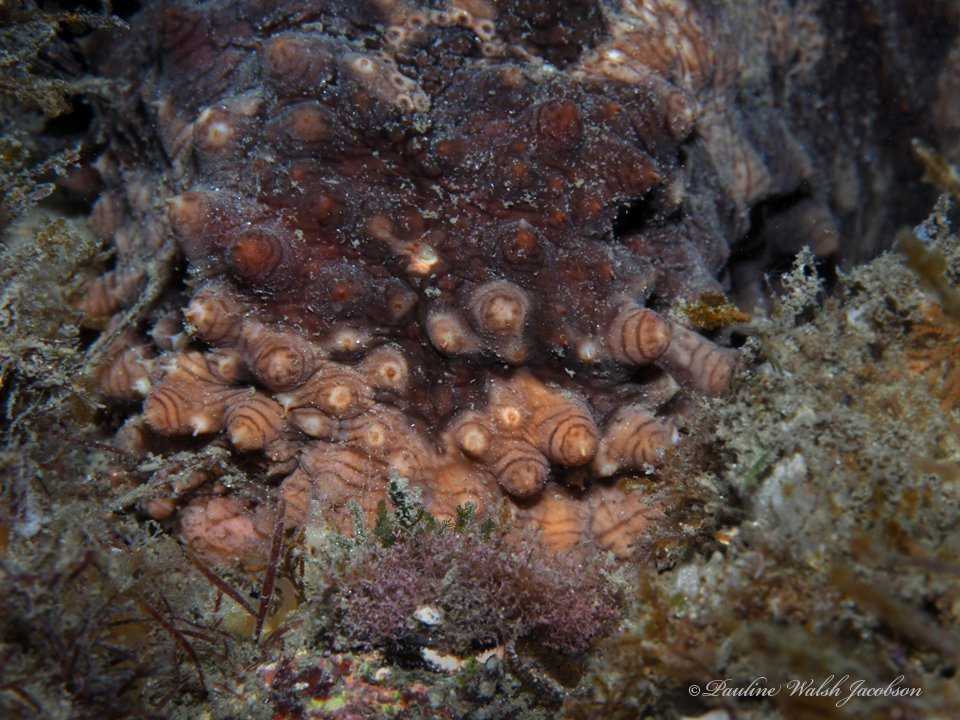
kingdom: Animalia
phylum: Echinodermata
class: Holothuroidea
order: Synallactida
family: Stichopodidae
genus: Isostichopus
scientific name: Isostichopus badionotus
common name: Chocolate chip cucumber
